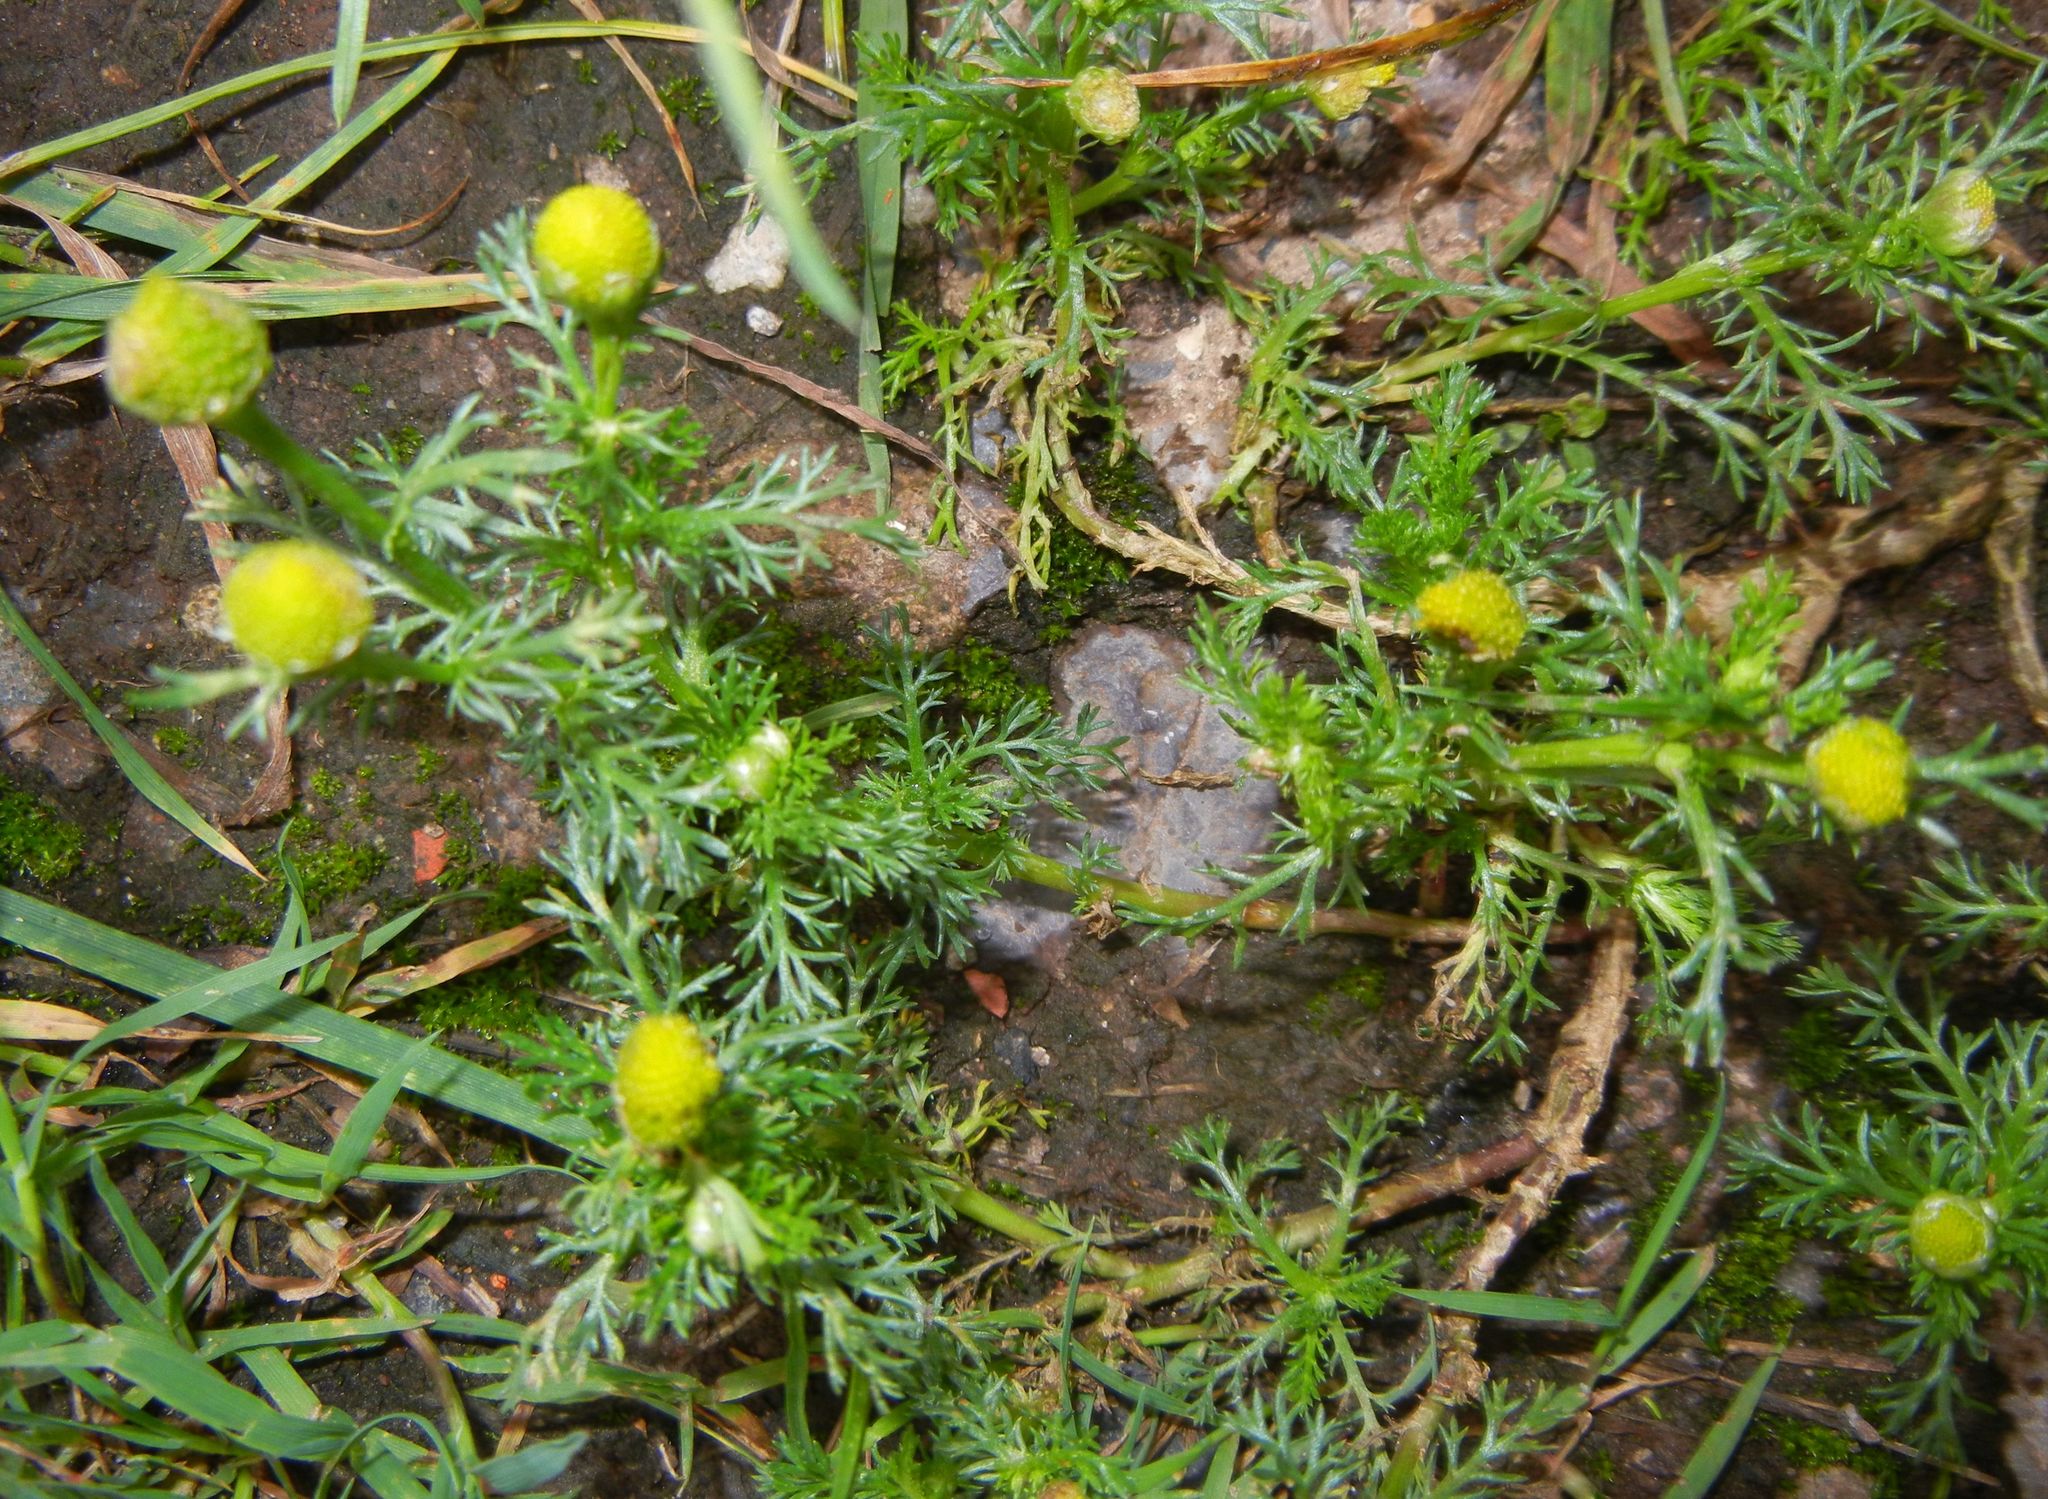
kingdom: Plantae
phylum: Tracheophyta
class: Magnoliopsida
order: Asterales
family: Asteraceae
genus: Matricaria
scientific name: Matricaria discoidea
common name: Disc mayweed
